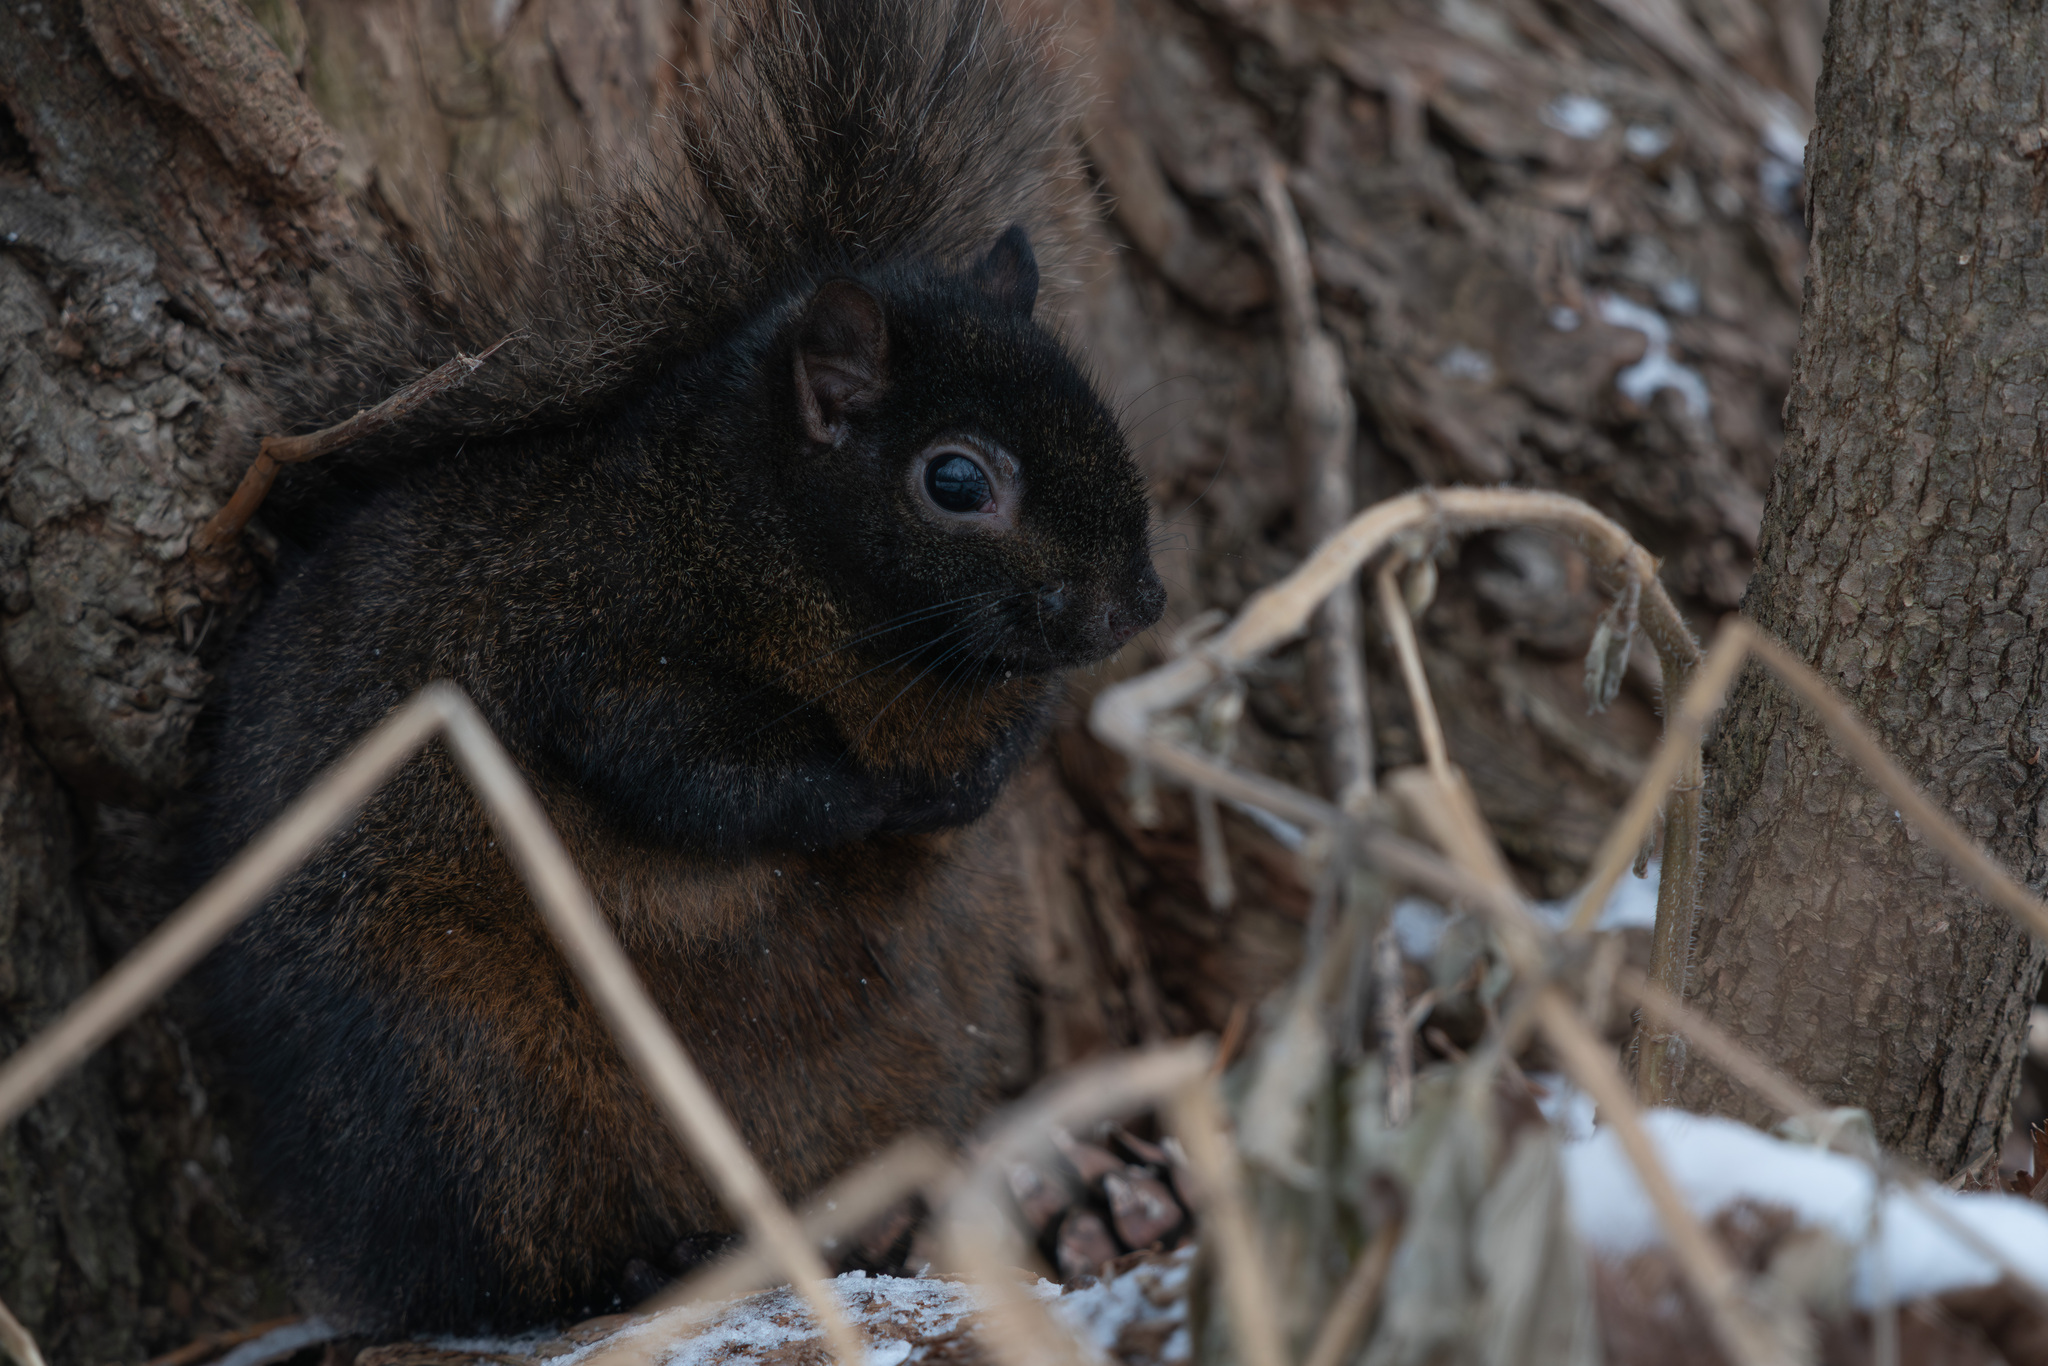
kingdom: Animalia
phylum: Chordata
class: Mammalia
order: Rodentia
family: Sciuridae
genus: Sciurus
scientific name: Sciurus carolinensis
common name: Eastern gray squirrel
